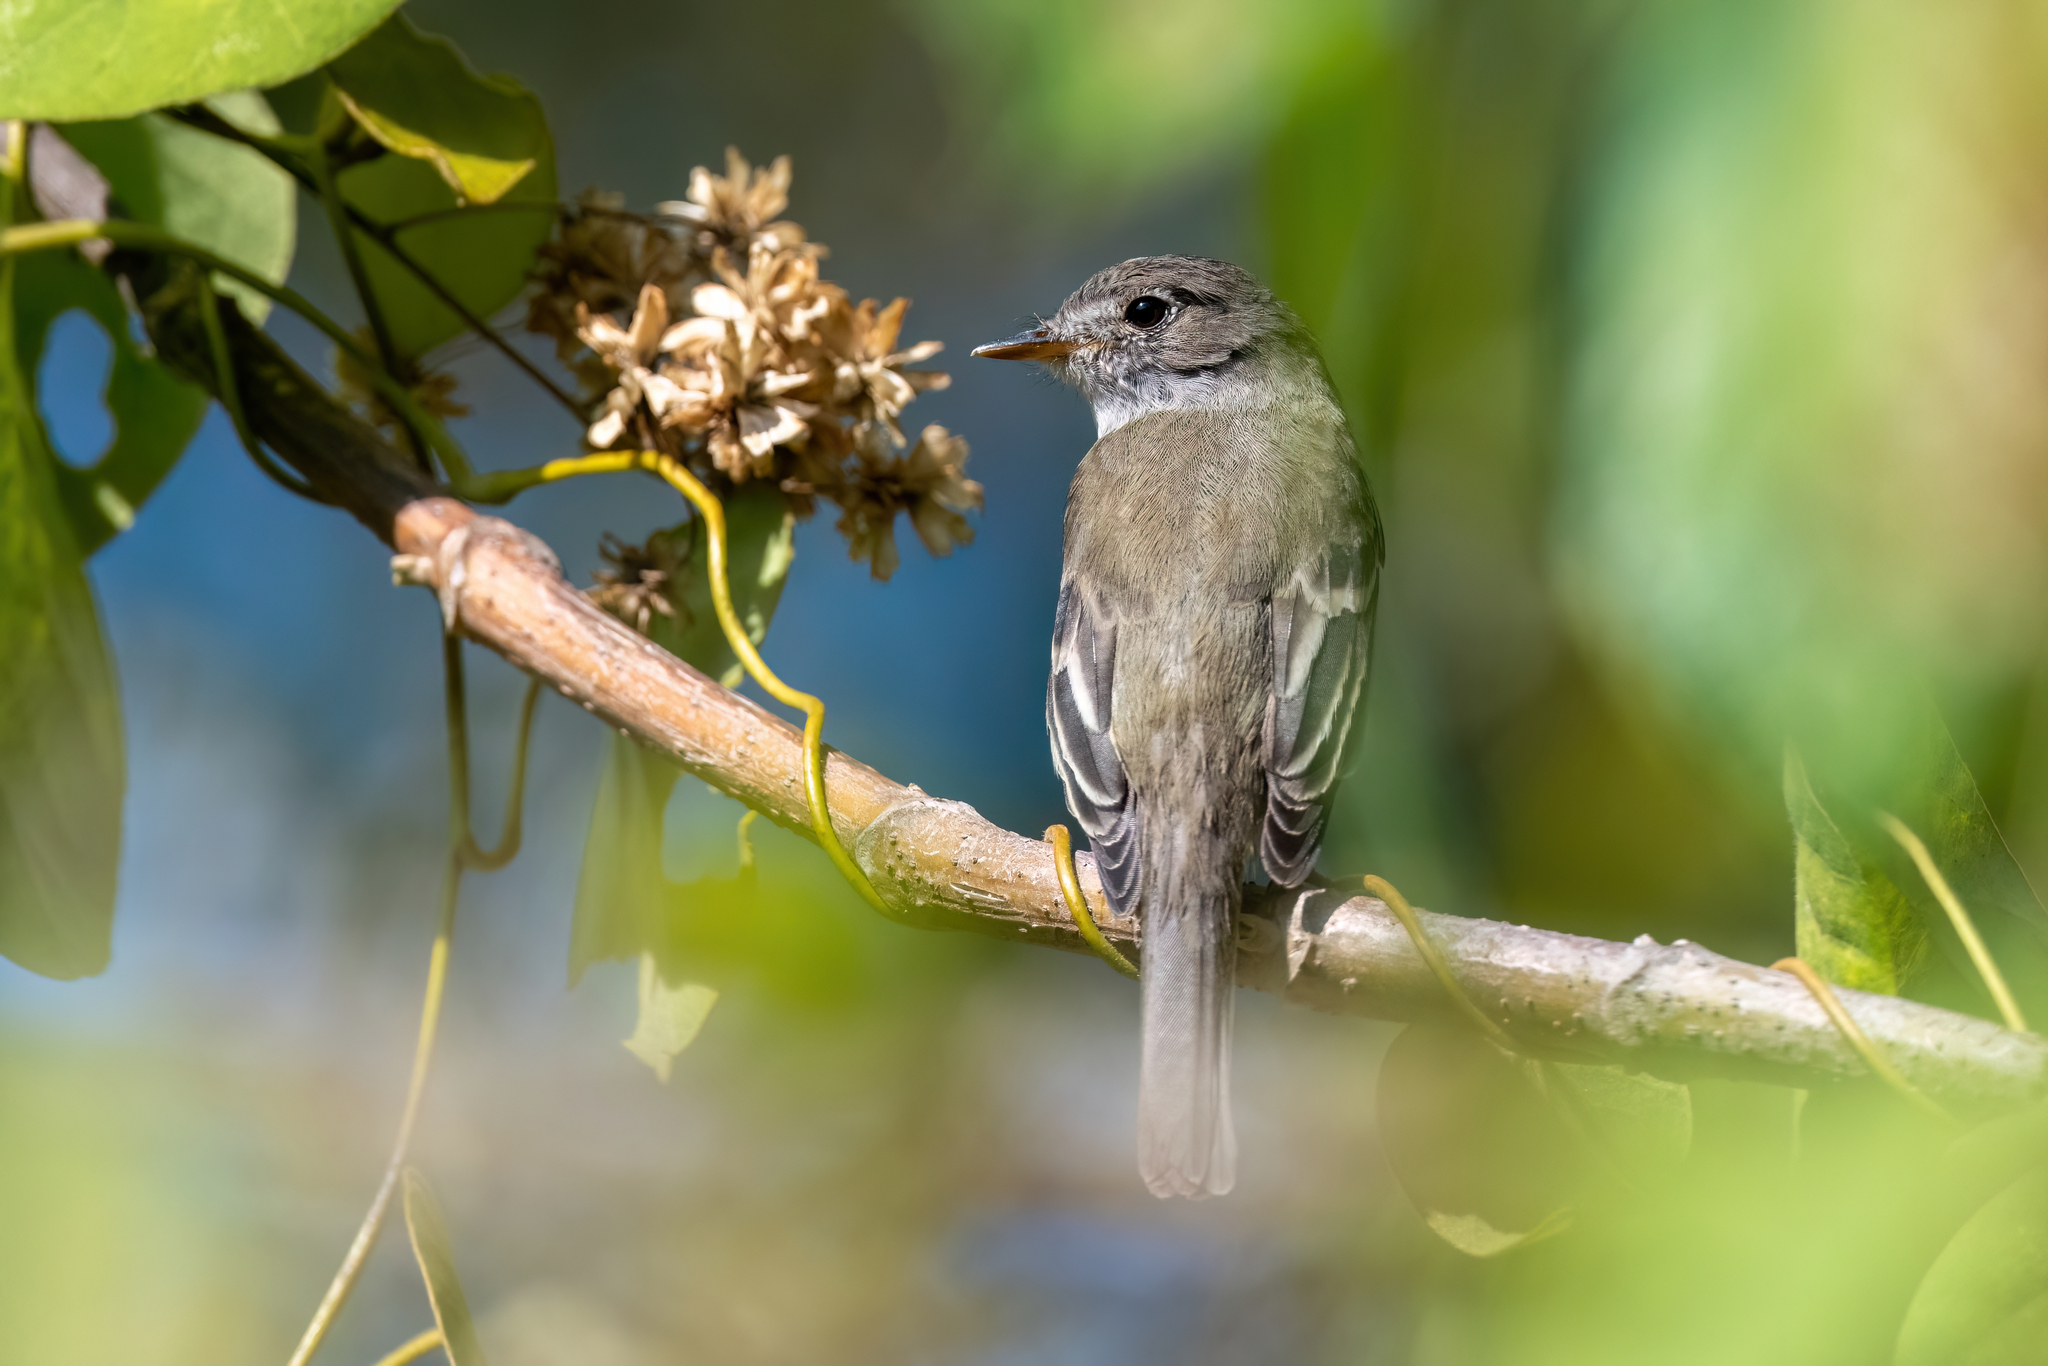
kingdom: Animalia
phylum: Chordata
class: Aves
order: Passeriformes
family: Tyrannidae
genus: Empidonax
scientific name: Empidonax minimus
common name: Least flycatcher
